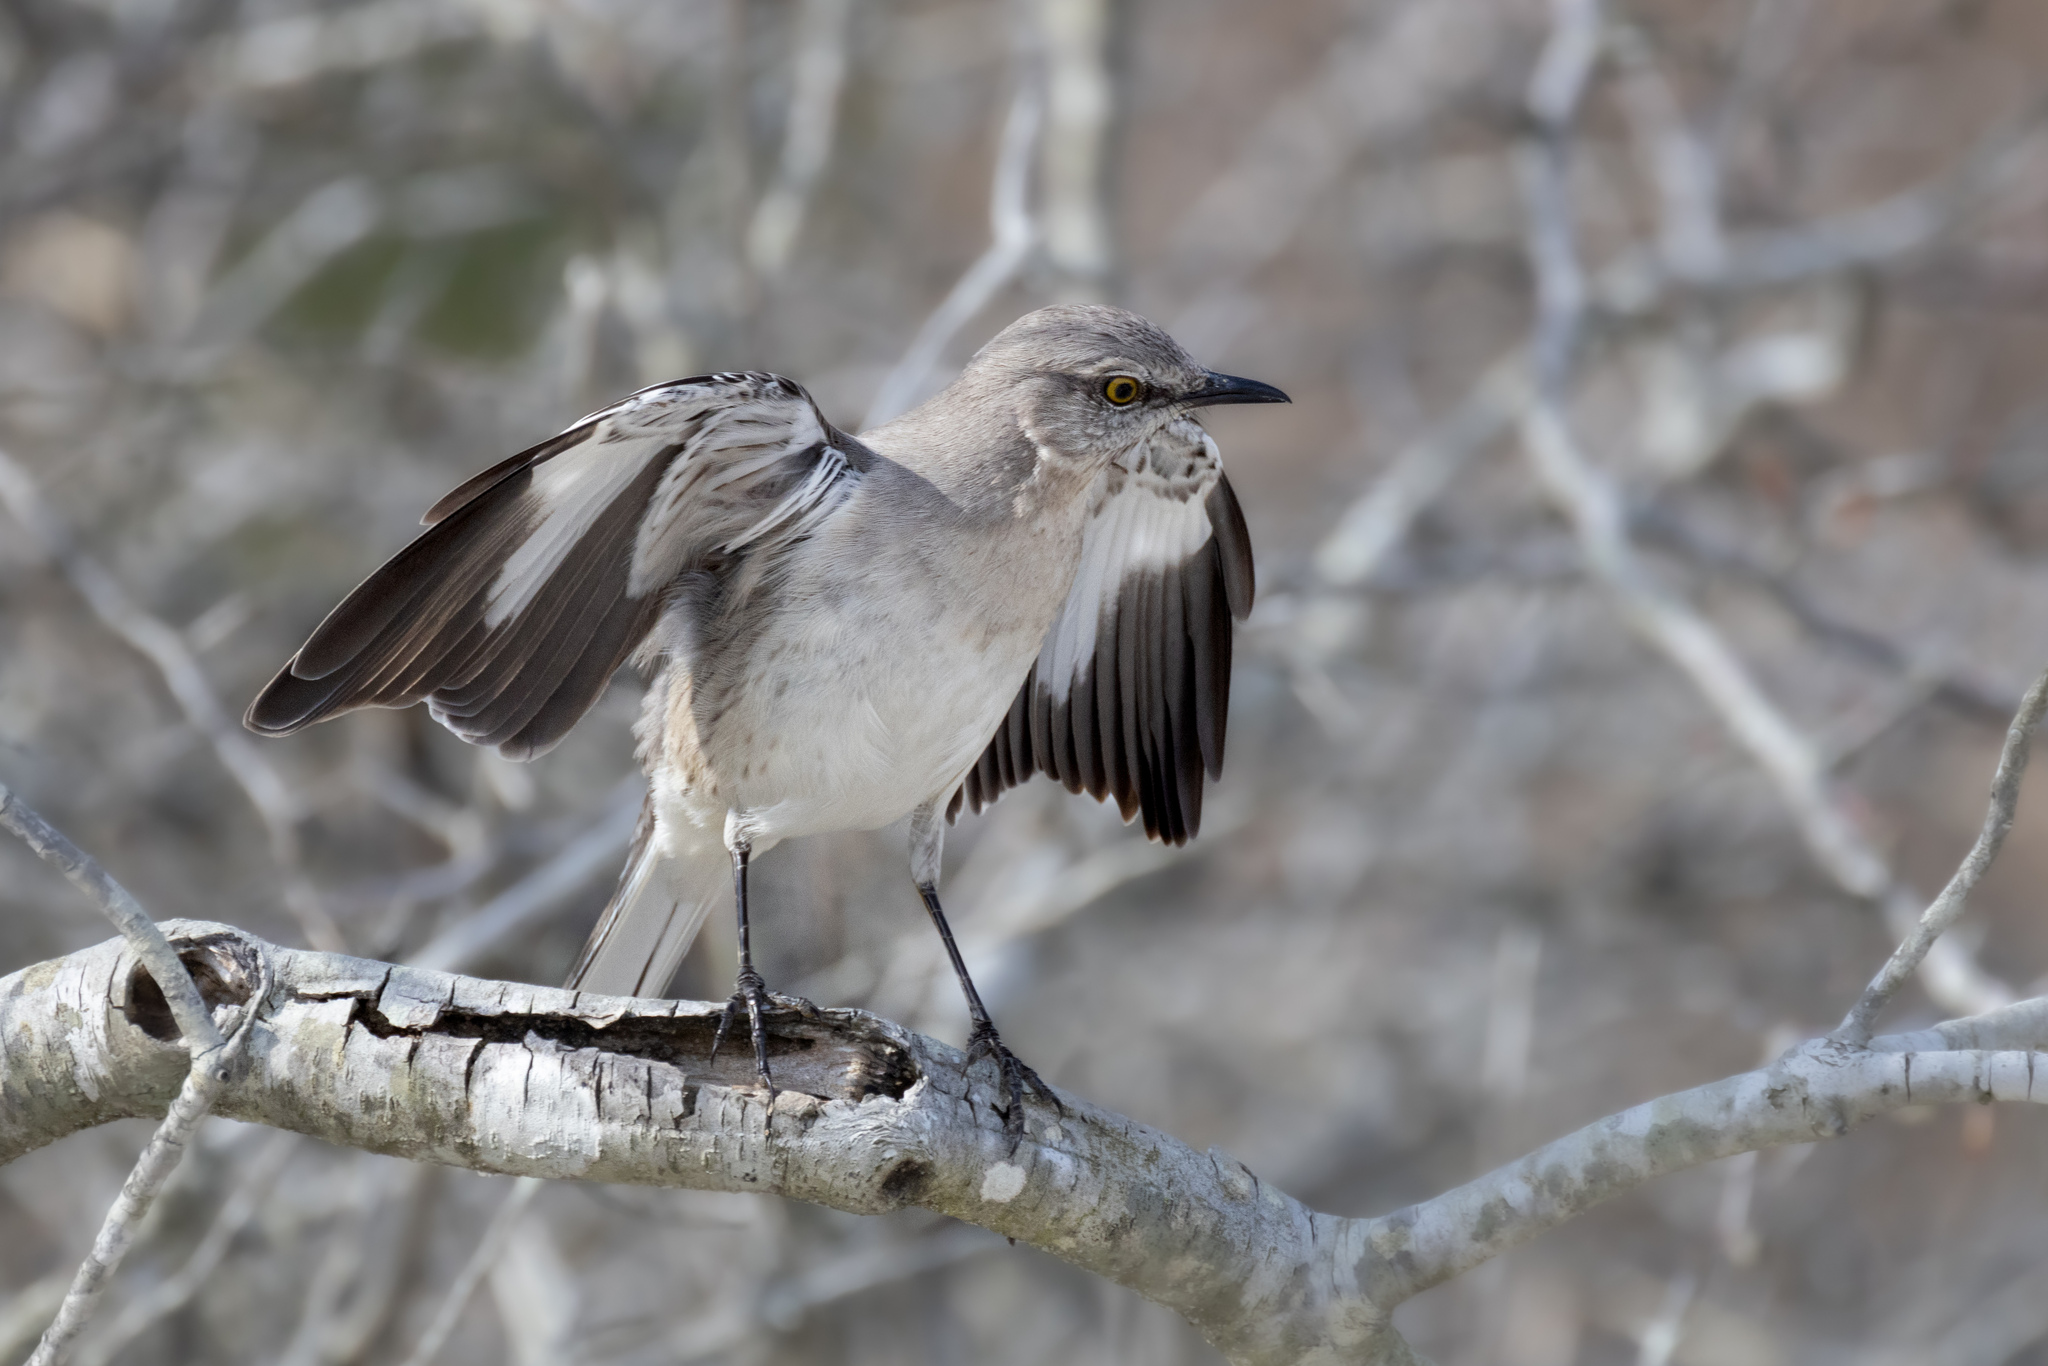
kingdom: Animalia
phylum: Chordata
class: Aves
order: Passeriformes
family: Mimidae
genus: Mimus
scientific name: Mimus polyglottos
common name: Northern mockingbird
